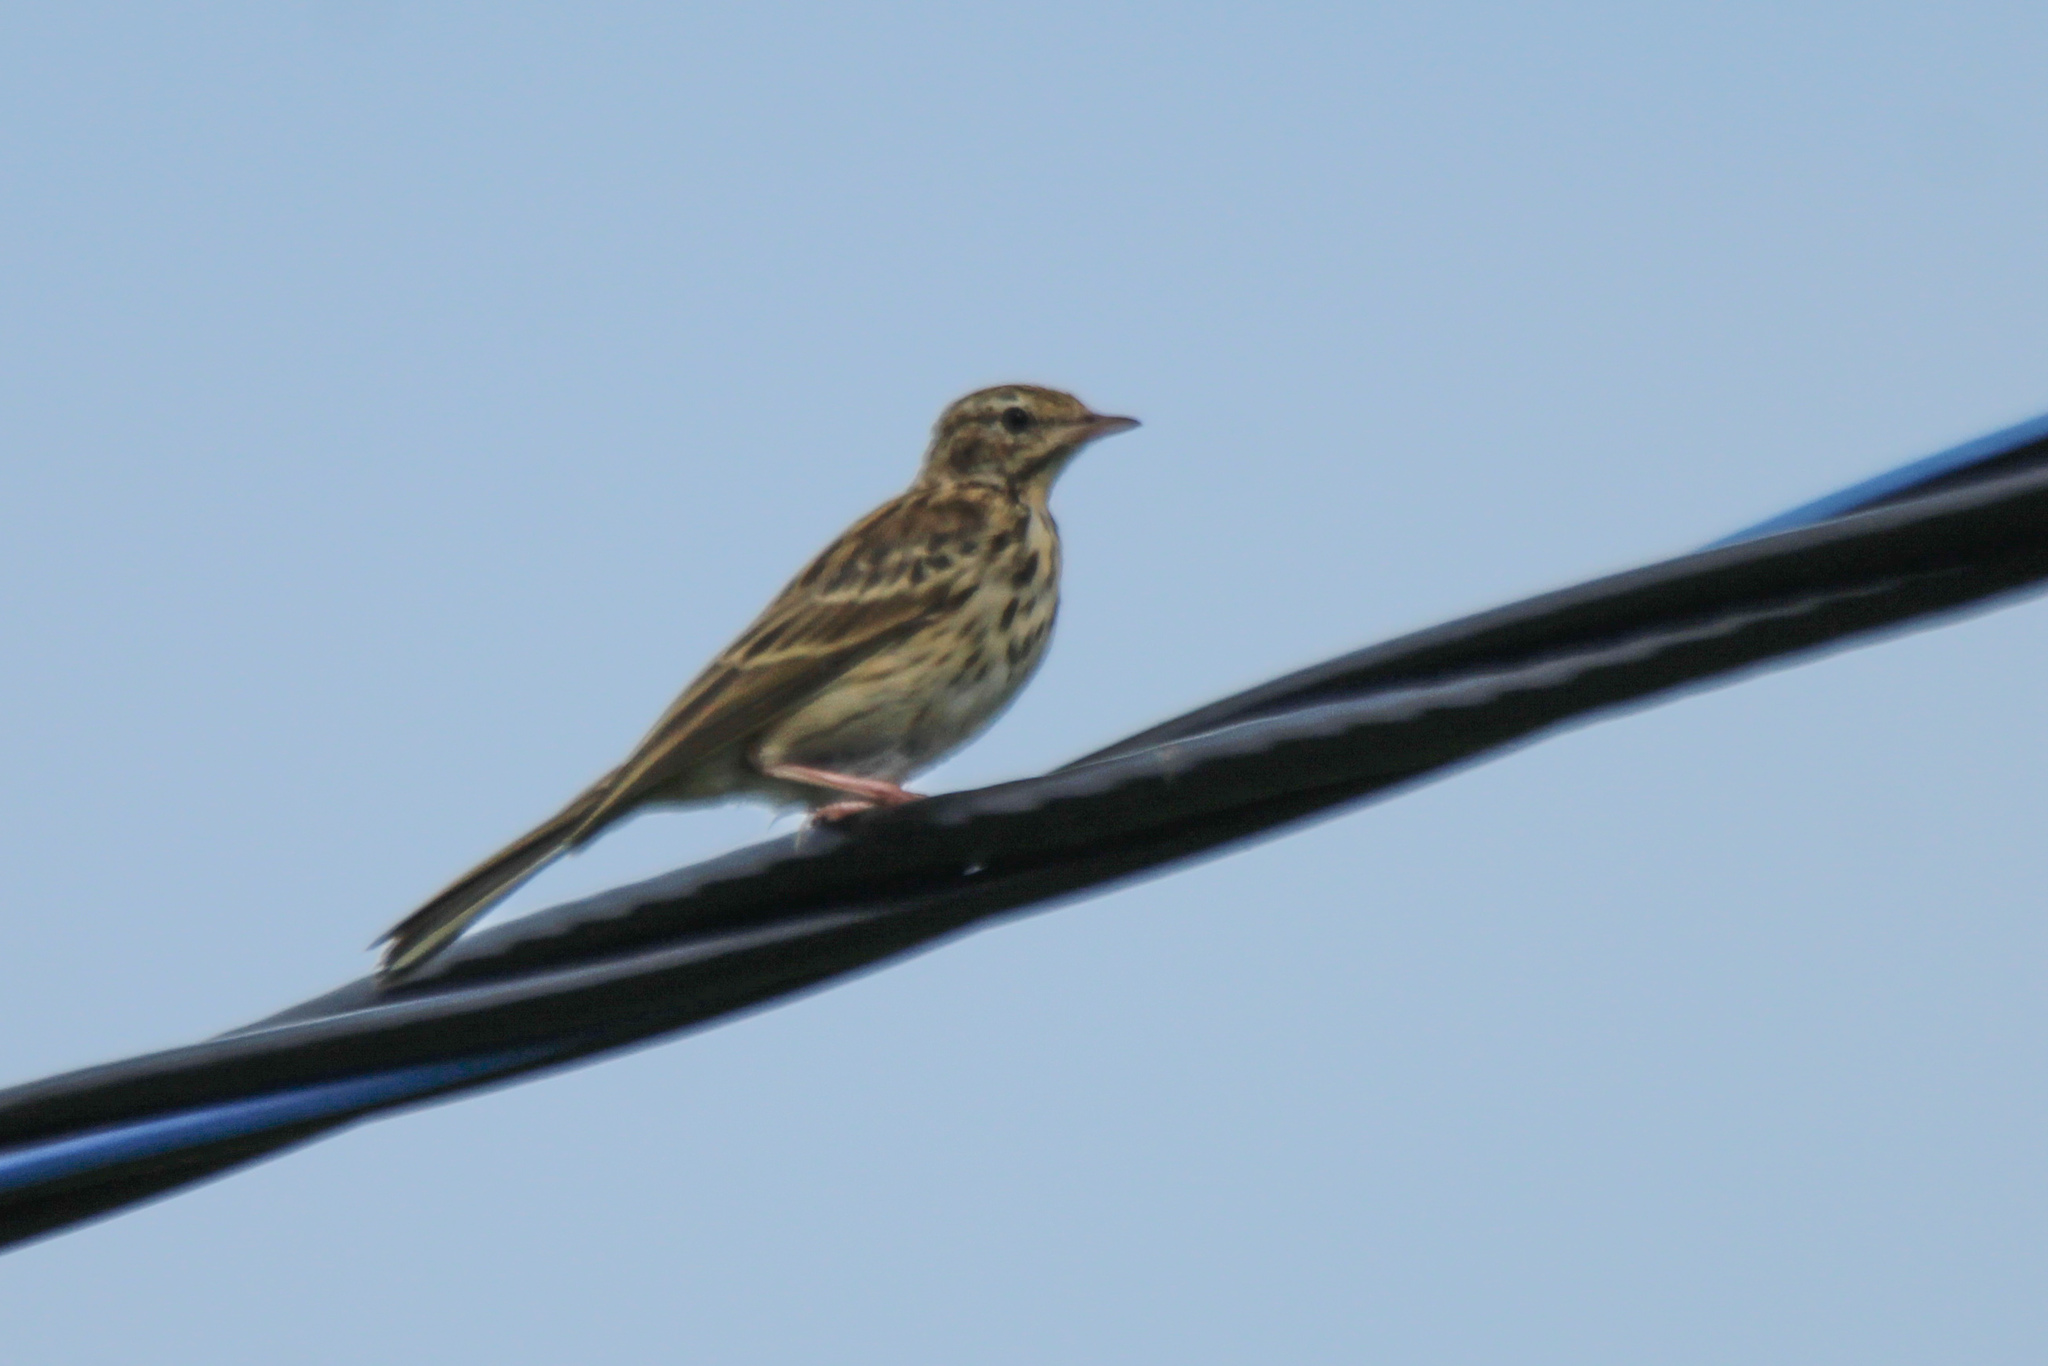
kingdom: Animalia
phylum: Chordata
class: Aves
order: Passeriformes
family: Motacillidae
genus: Anthus
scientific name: Anthus trivialis
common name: Tree pipit
